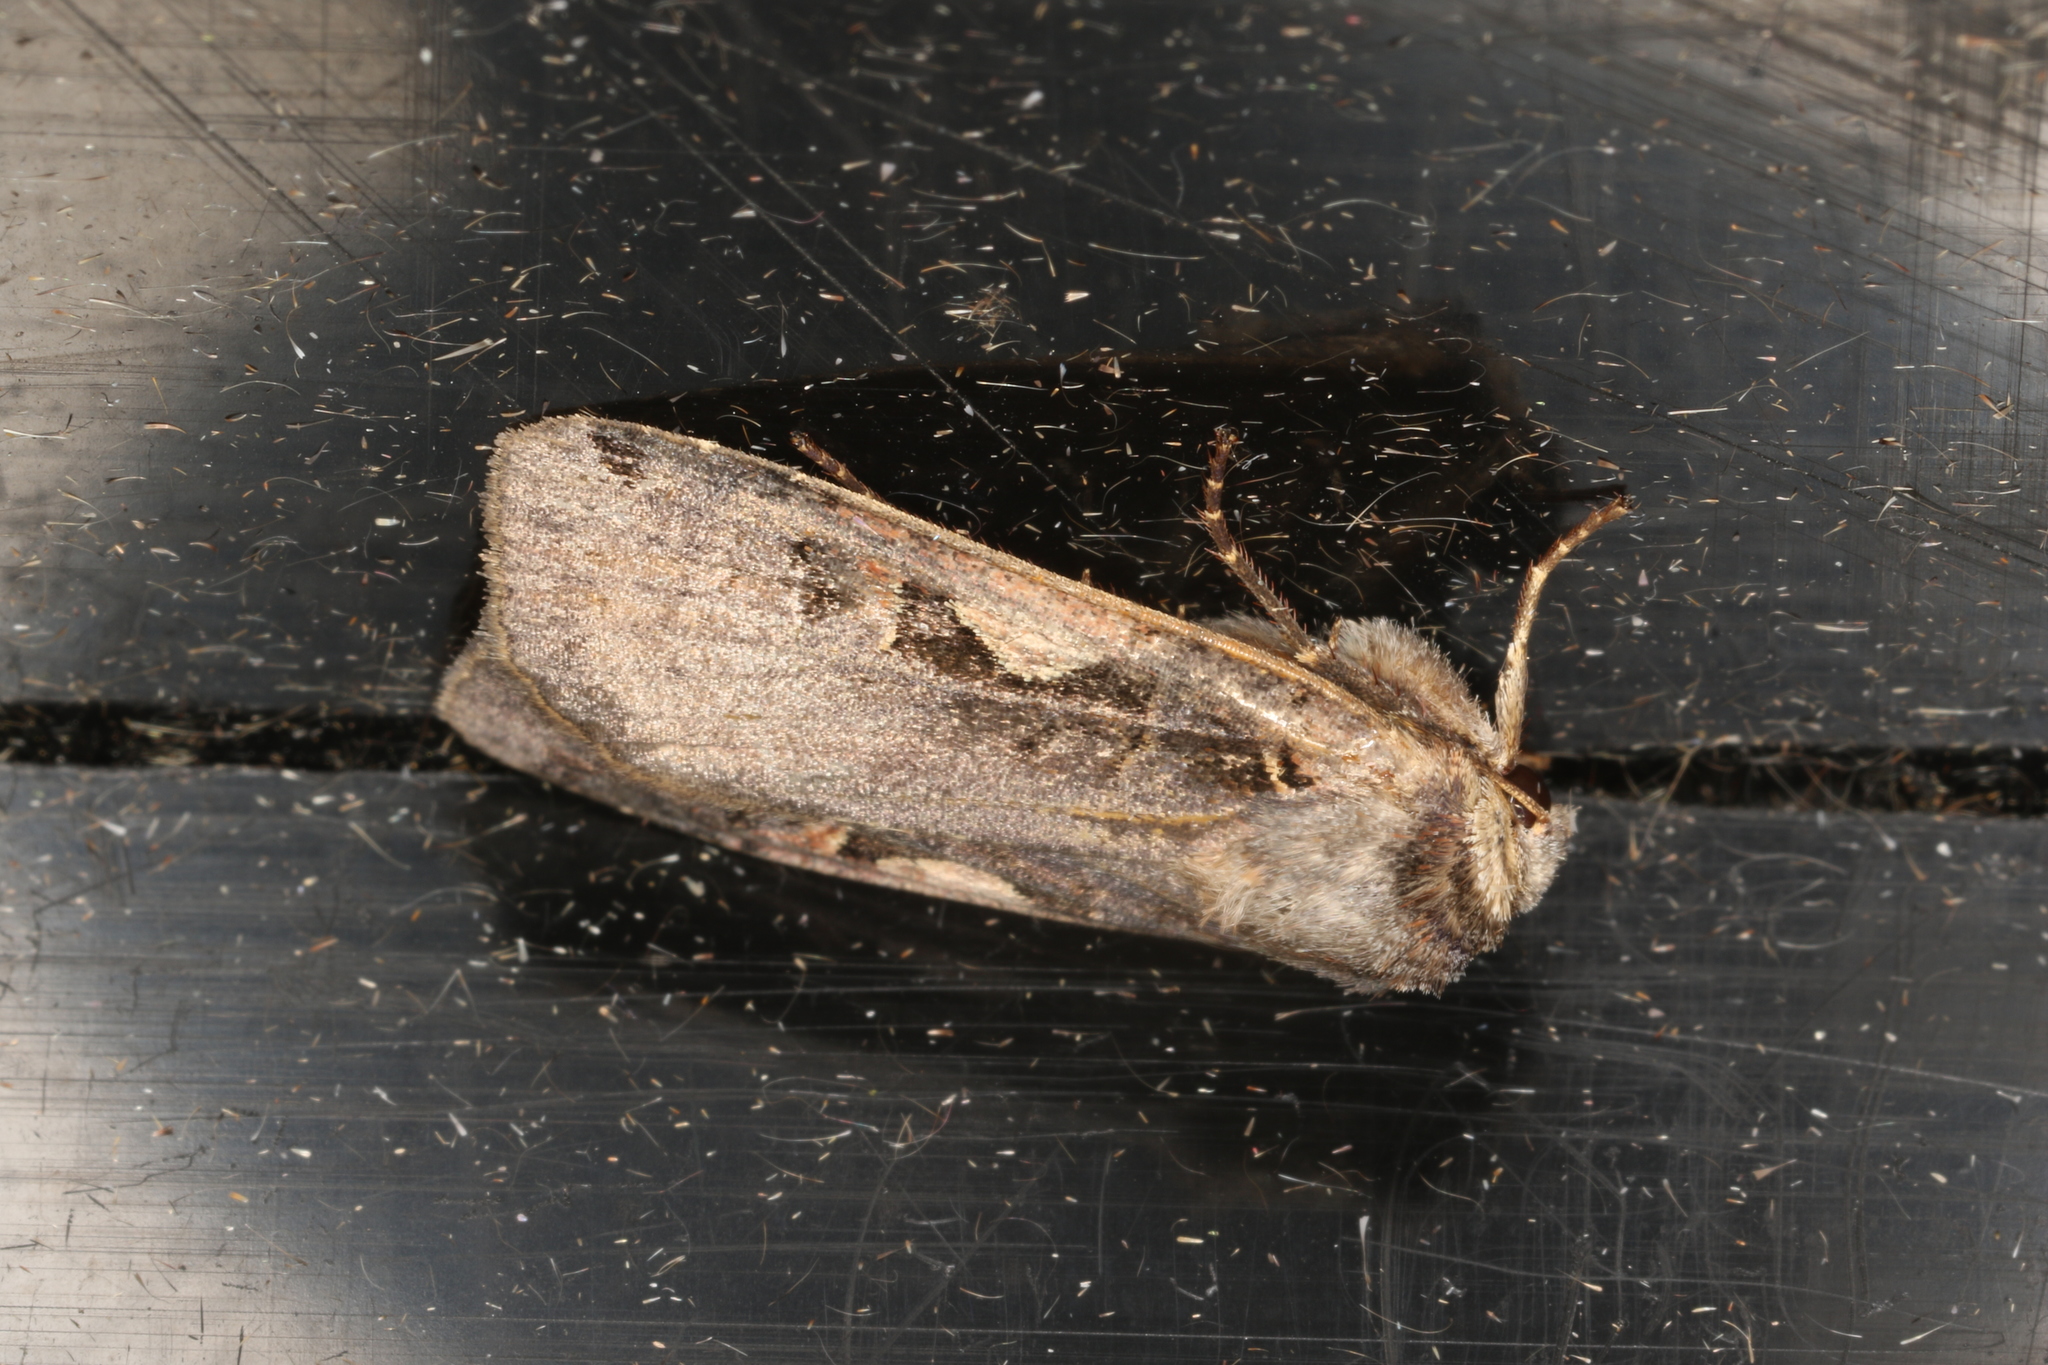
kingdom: Animalia
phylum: Arthropoda
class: Insecta
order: Lepidoptera
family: Noctuidae
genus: Xestia
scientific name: Xestia c-nigrum
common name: Setaceous hebrew character
